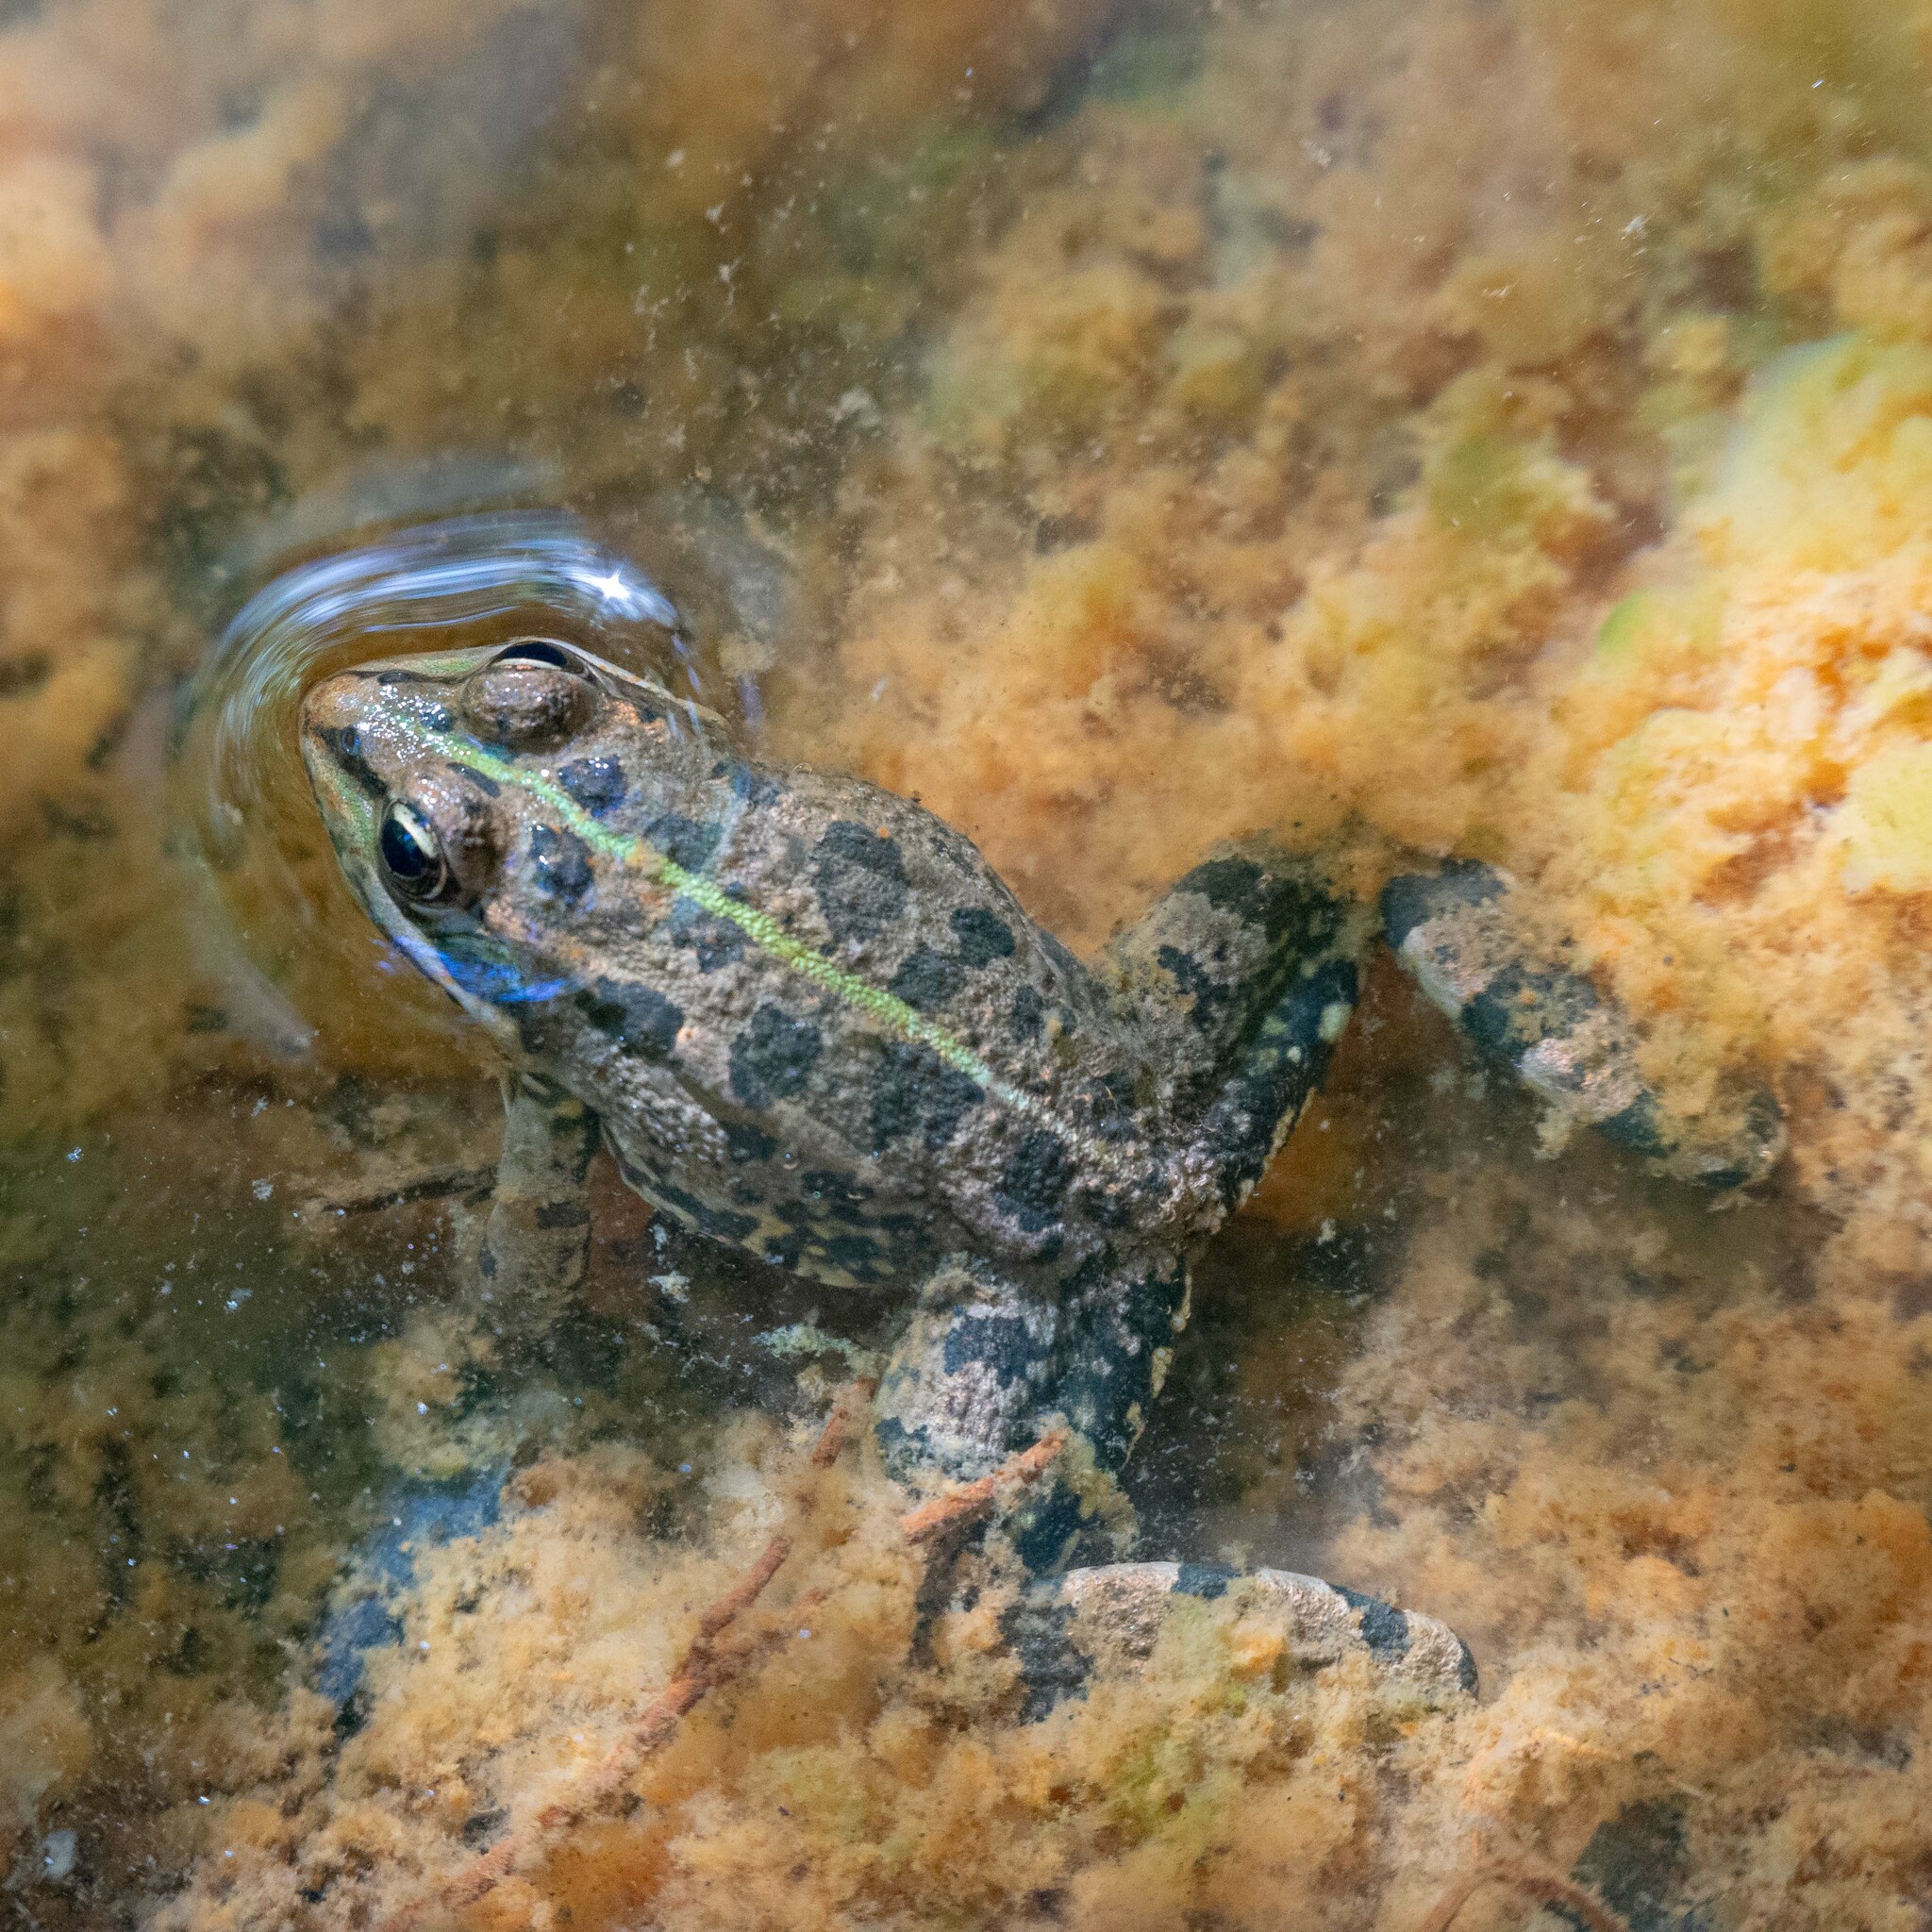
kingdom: Animalia
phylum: Chordata
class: Amphibia
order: Anura
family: Ranidae
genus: Pelophylax
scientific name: Pelophylax perezi
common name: Perez's frog
